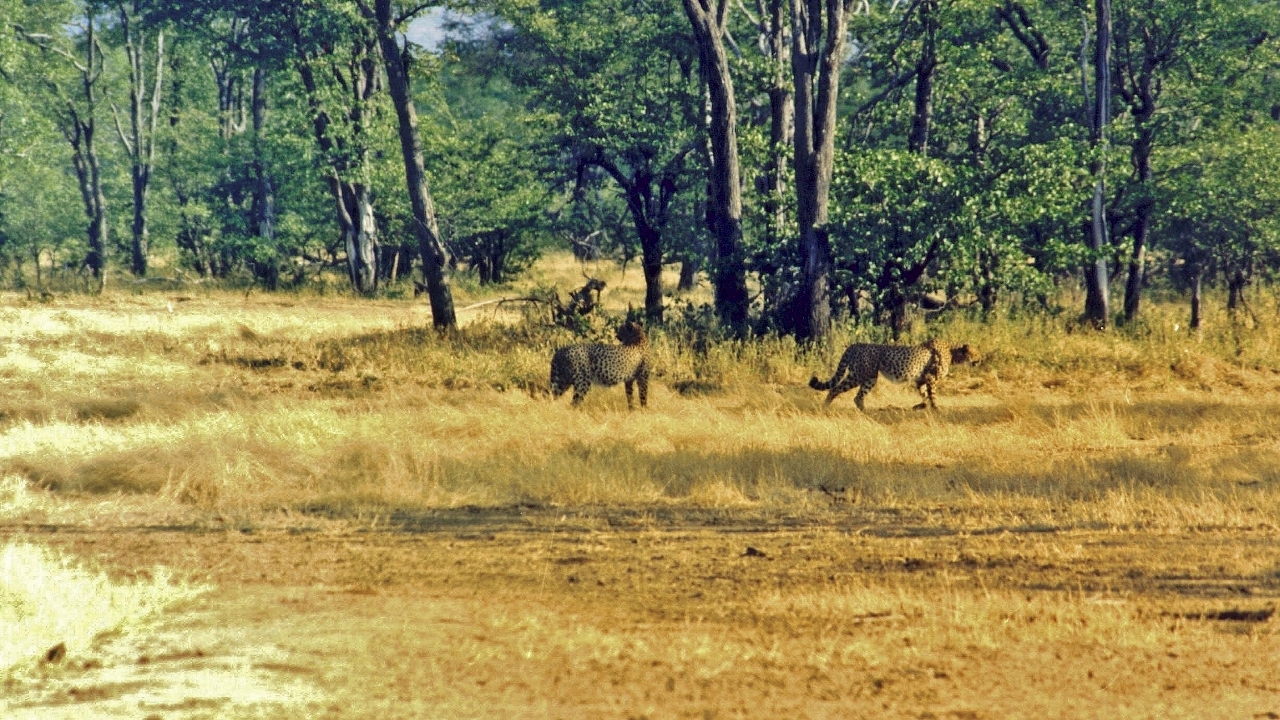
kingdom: Animalia
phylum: Chordata
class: Mammalia
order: Carnivora
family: Felidae
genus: Acinonyx
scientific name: Acinonyx jubatus
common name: Cheetah
